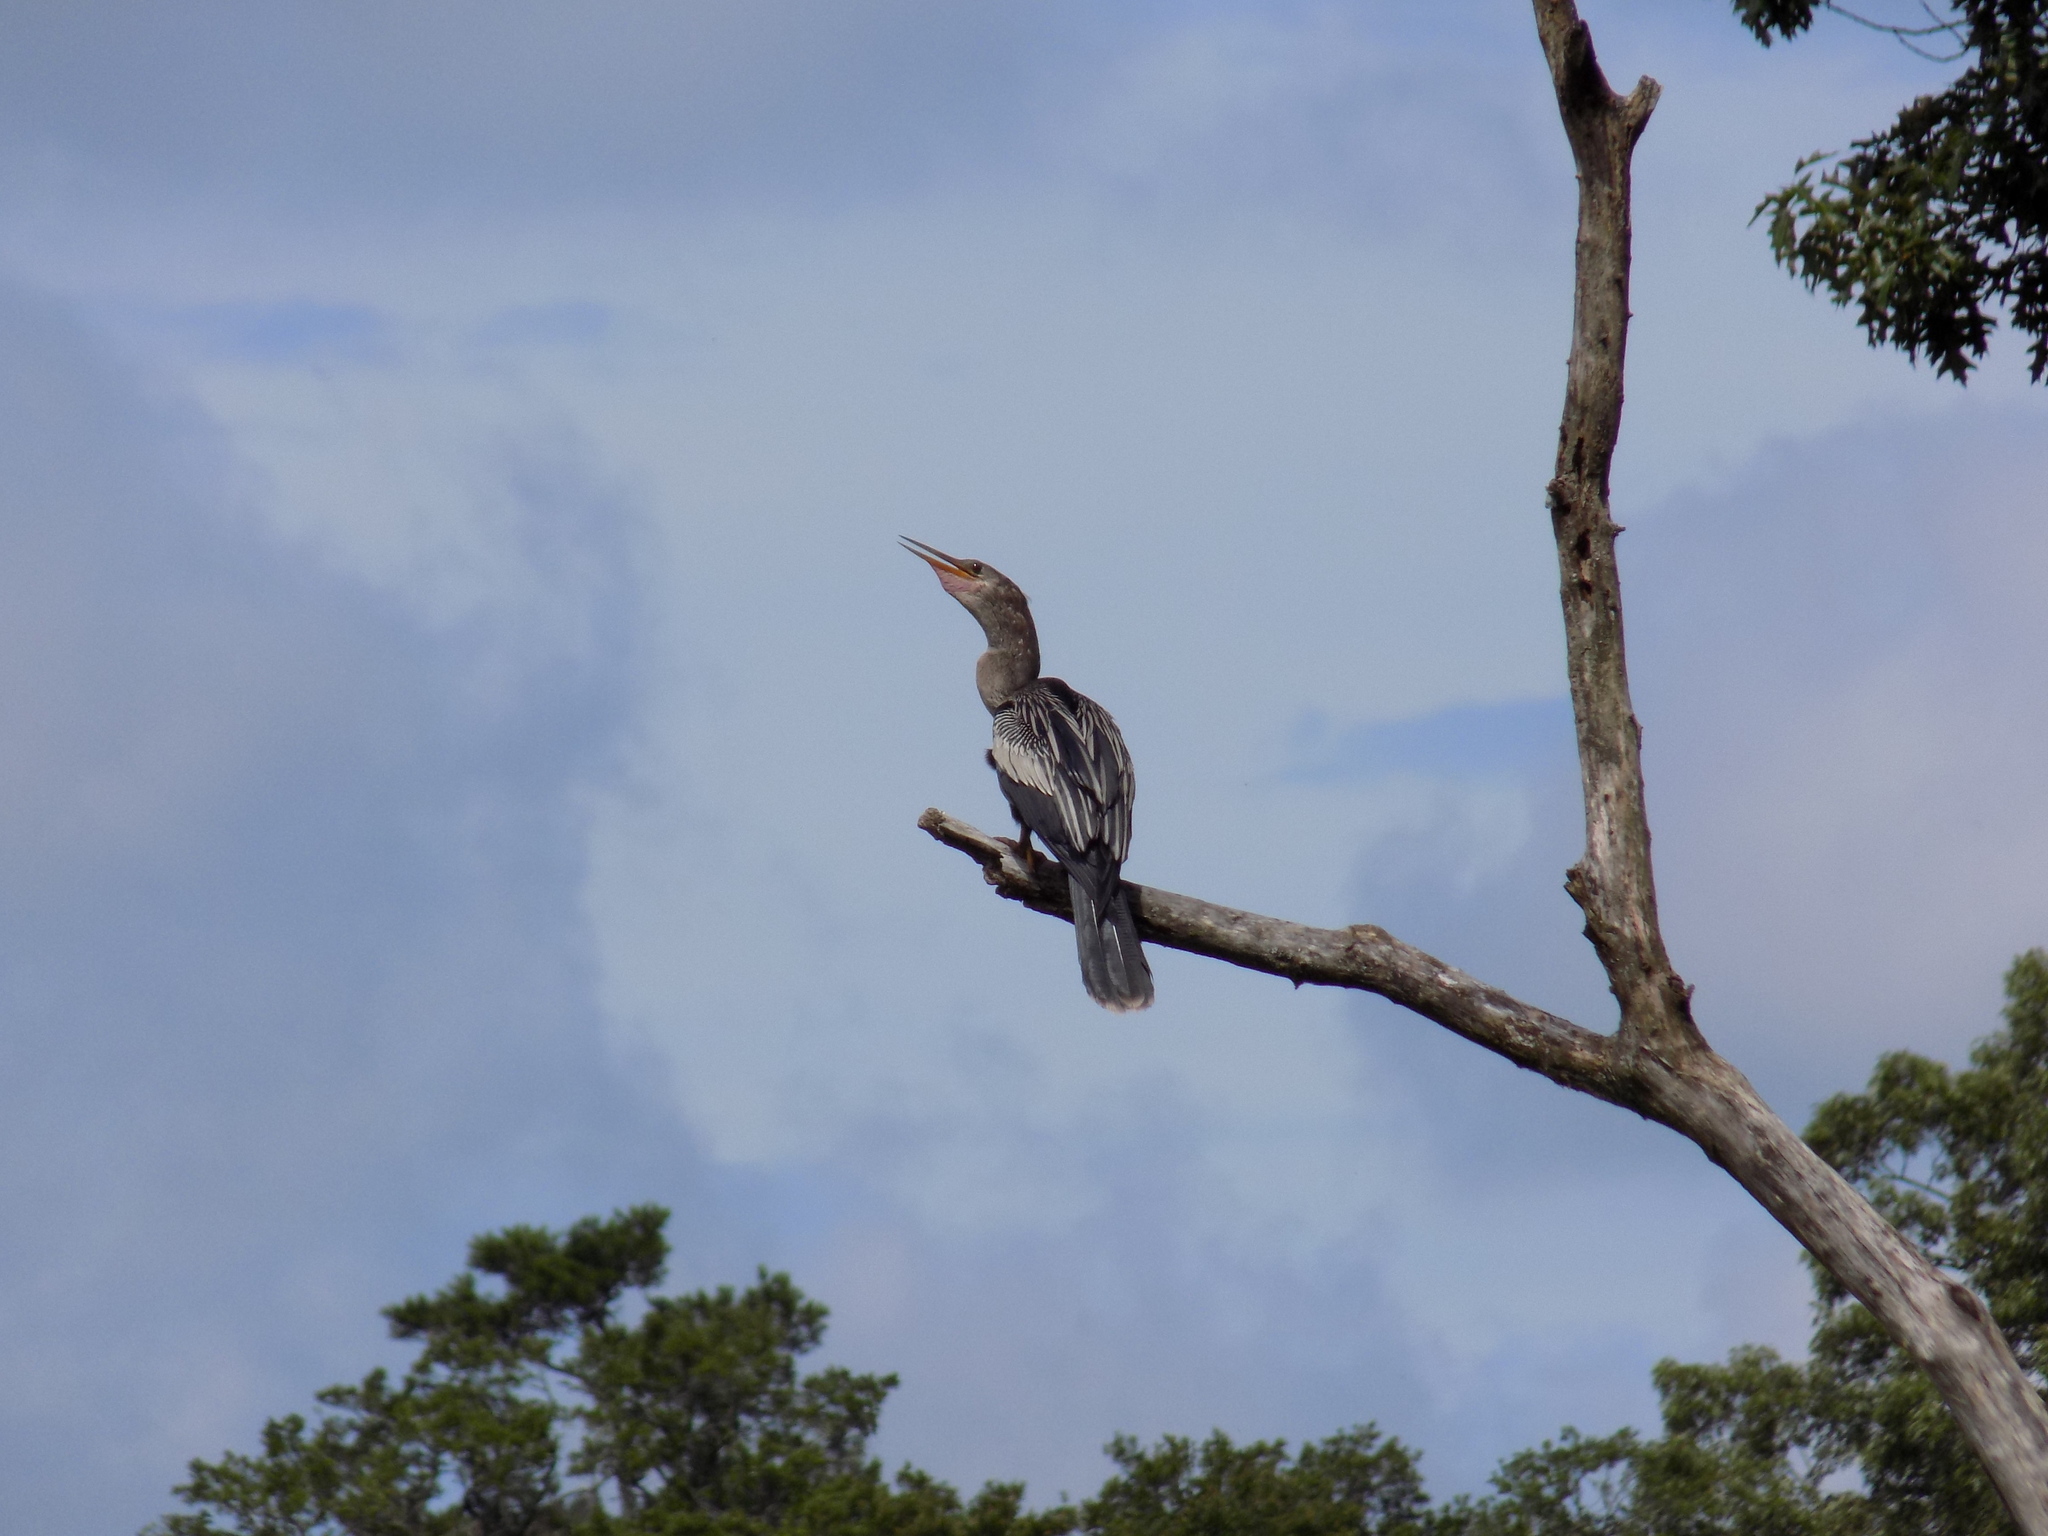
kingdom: Animalia
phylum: Chordata
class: Aves
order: Suliformes
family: Anhingidae
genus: Anhinga
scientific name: Anhinga anhinga
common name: Anhinga
